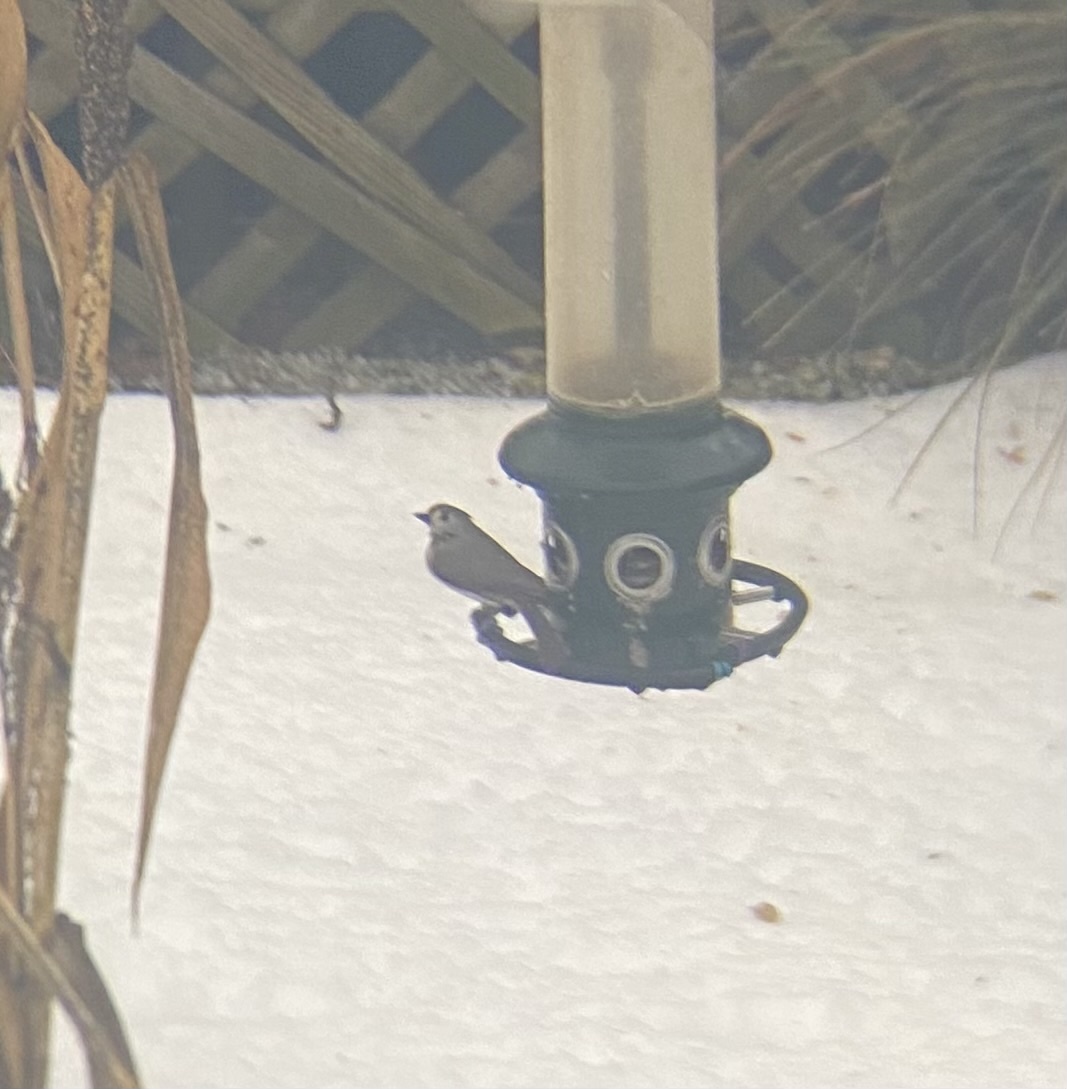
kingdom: Animalia
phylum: Chordata
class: Aves
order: Passeriformes
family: Paridae
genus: Baeolophus
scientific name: Baeolophus bicolor
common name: Tufted titmouse
